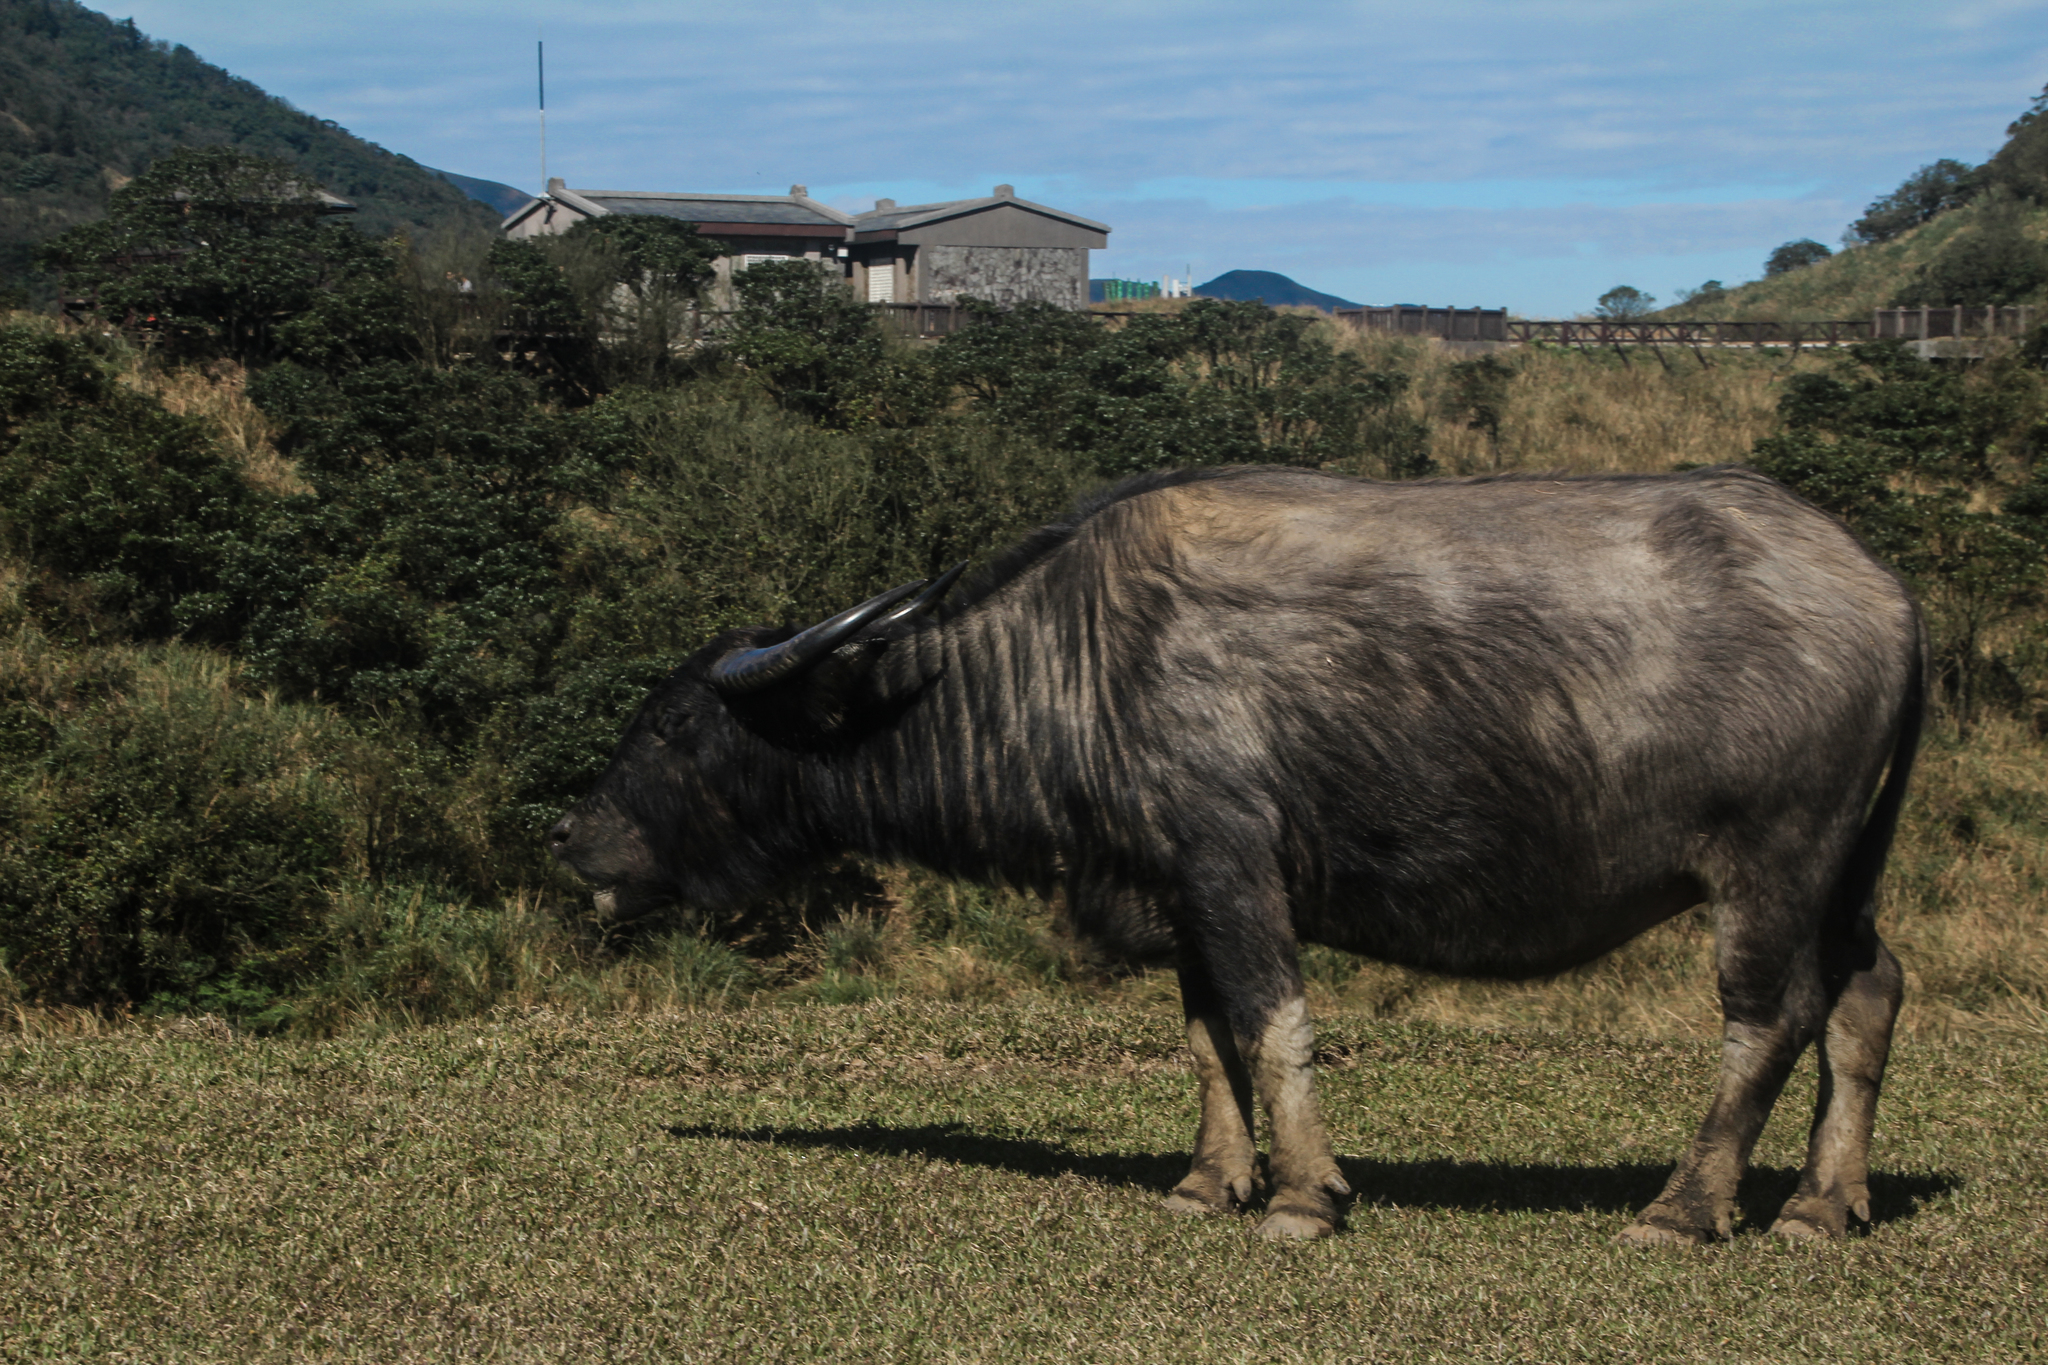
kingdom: Animalia
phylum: Chordata
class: Mammalia
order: Artiodactyla
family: Bovidae
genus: Bubalus
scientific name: Bubalus bubalis
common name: Water buffalo
